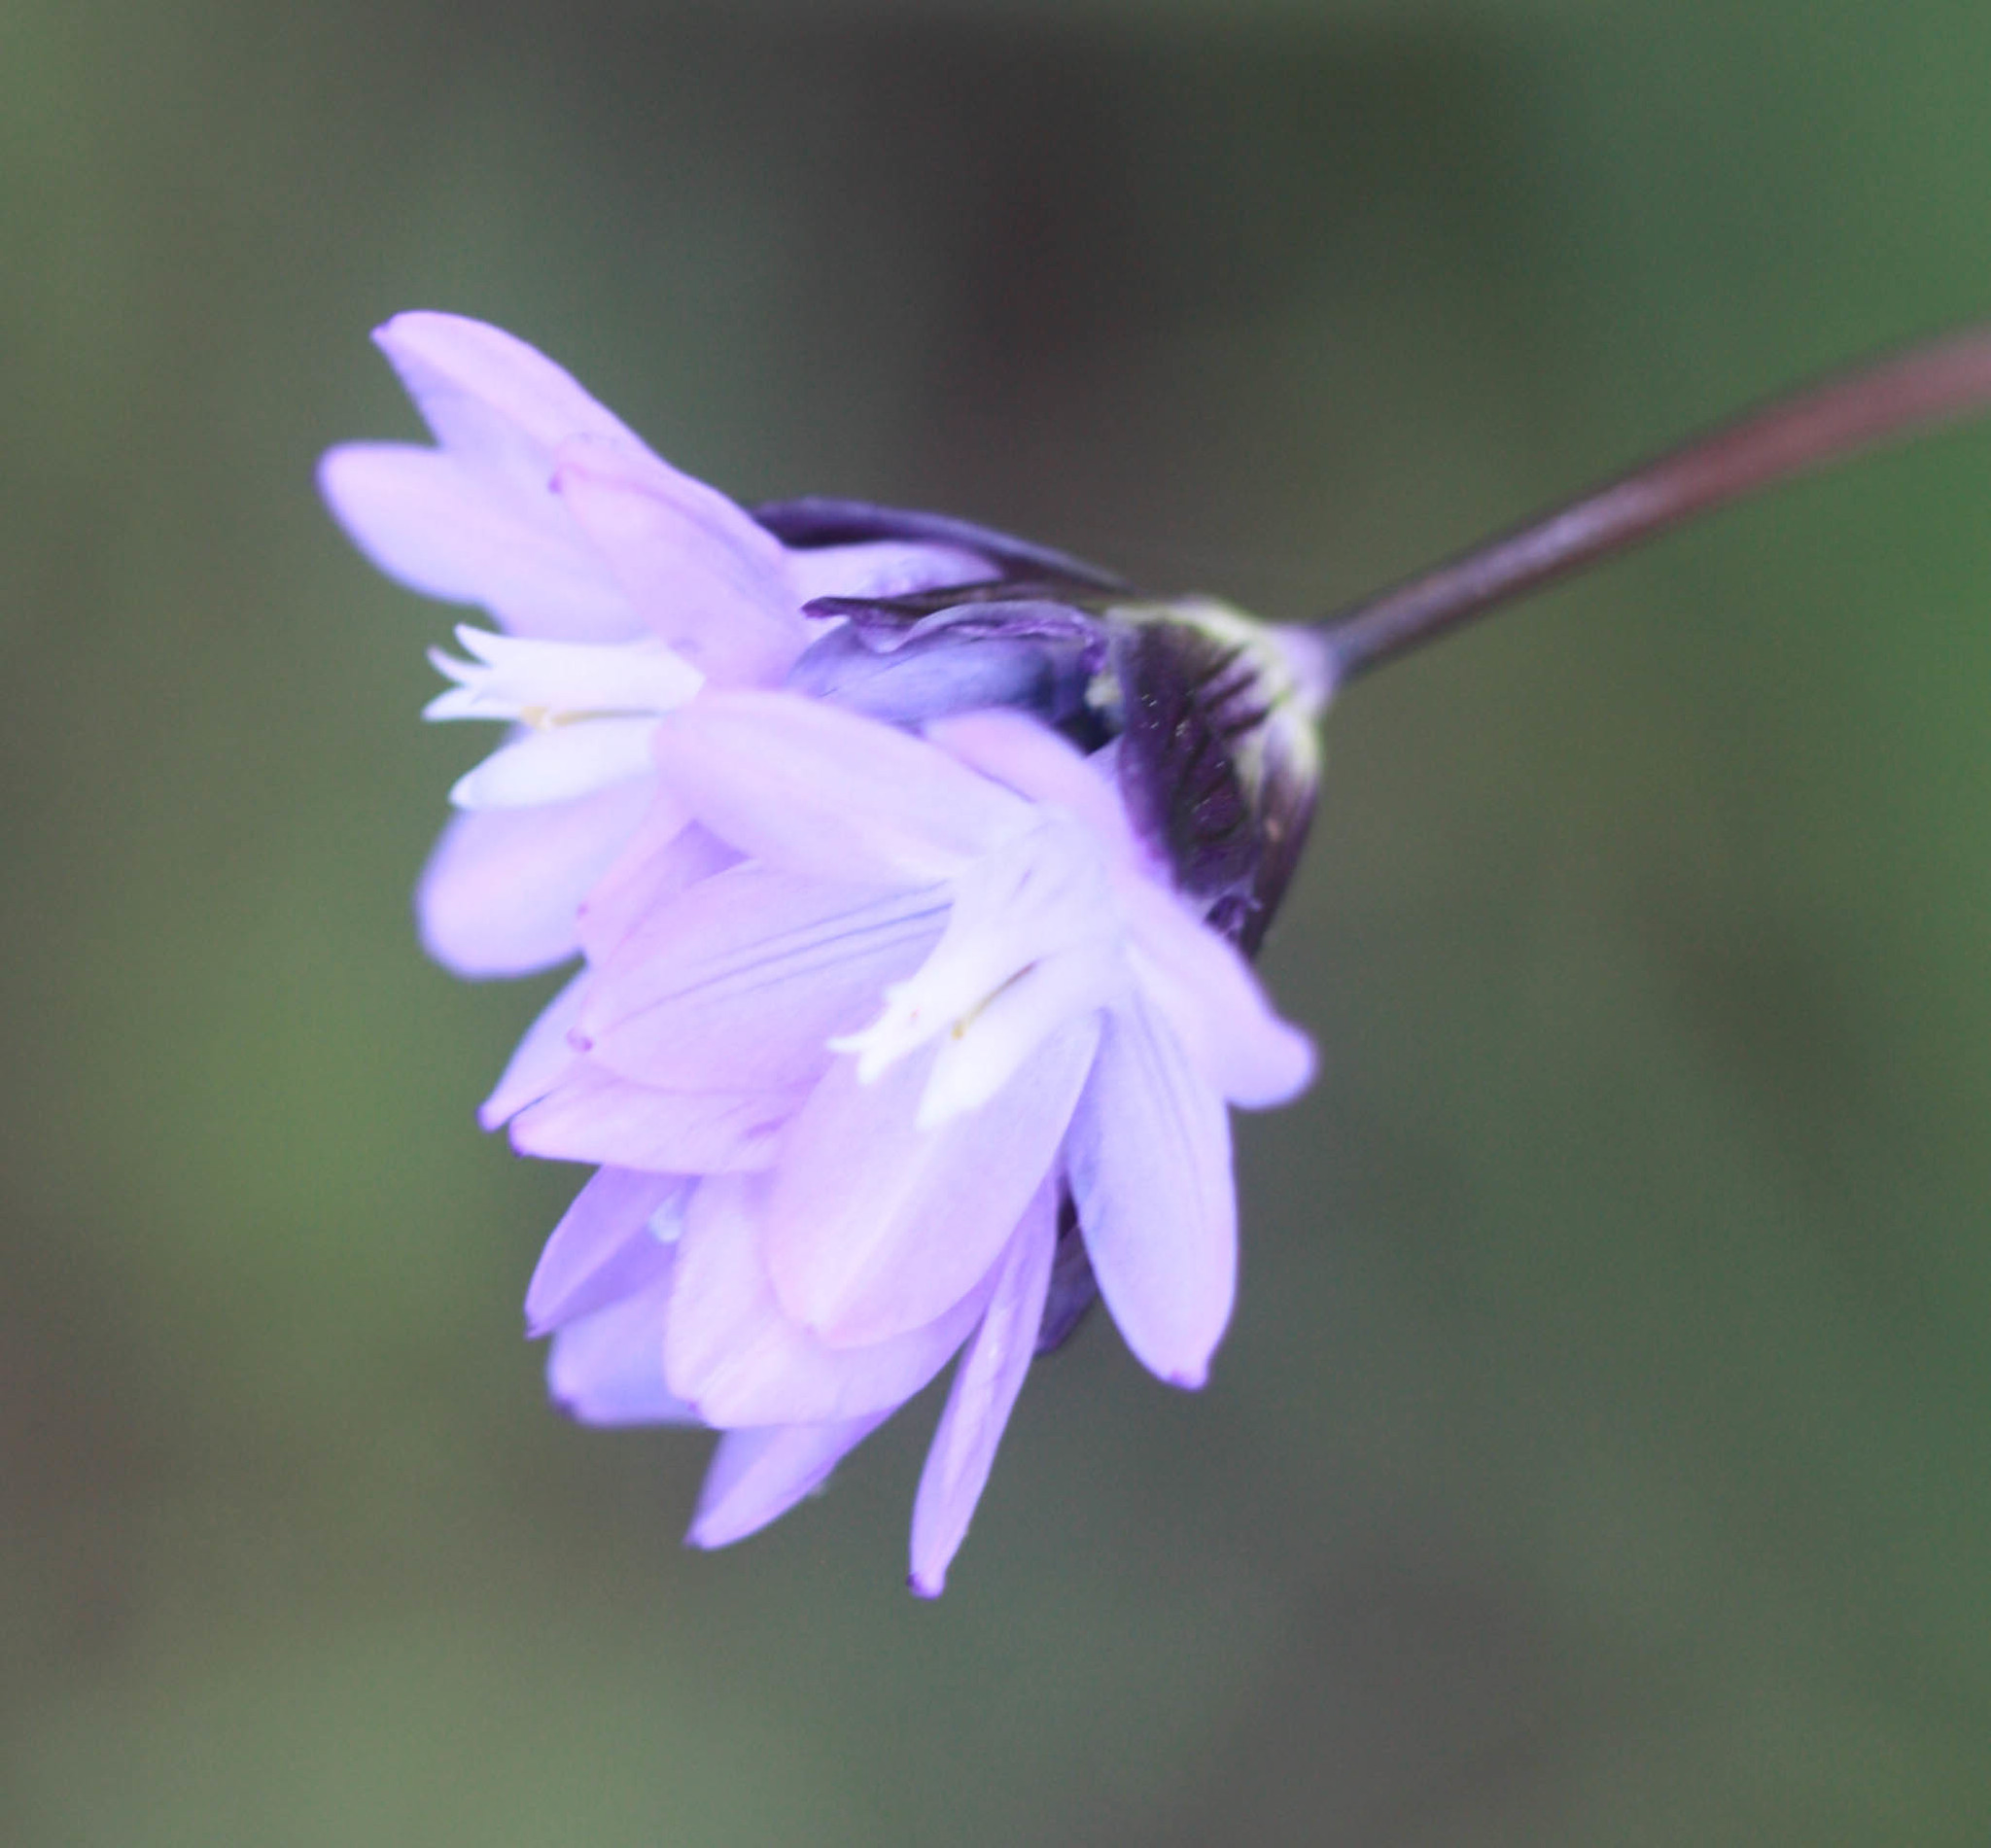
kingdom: Plantae
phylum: Tracheophyta
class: Liliopsida
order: Asparagales
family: Asparagaceae
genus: Dipterostemon
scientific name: Dipterostemon capitatus
